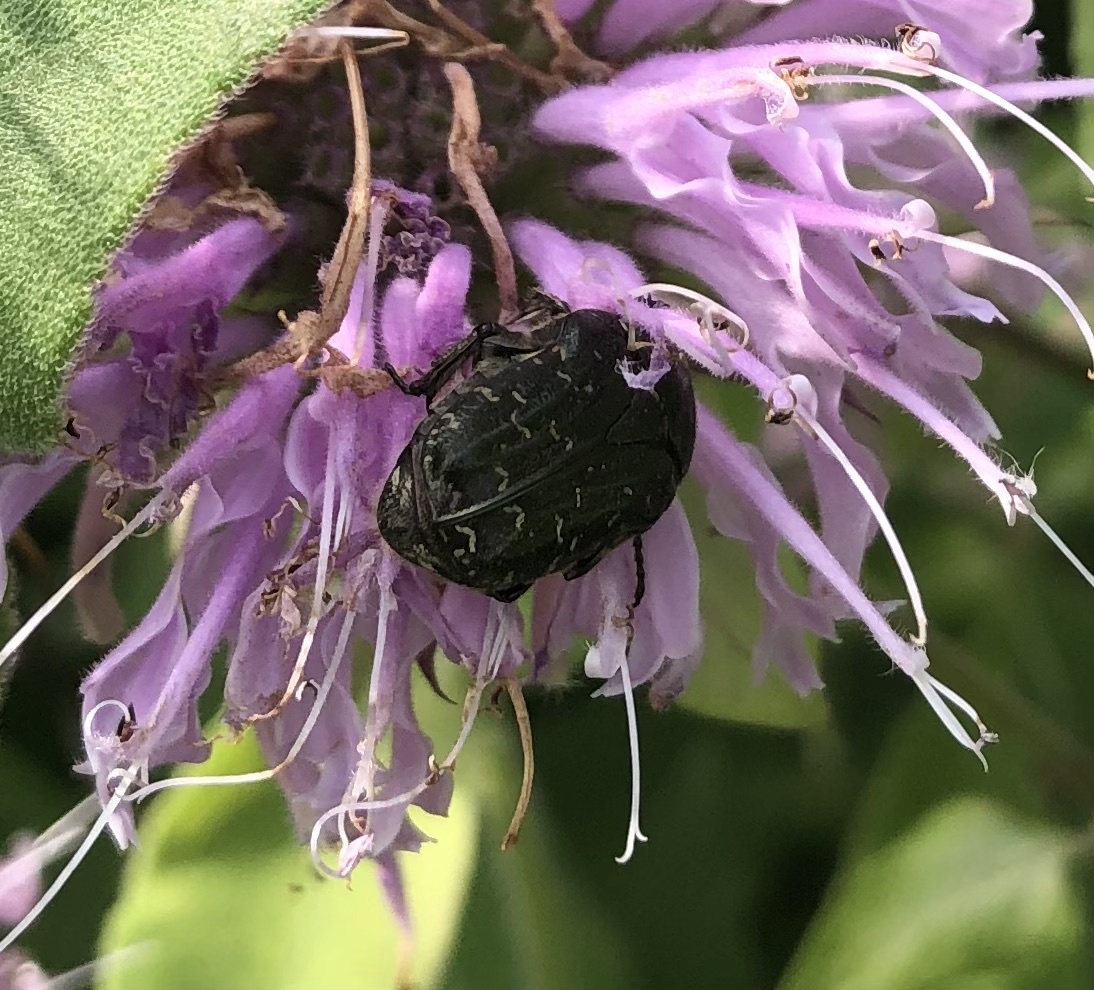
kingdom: Animalia
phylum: Arthropoda
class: Insecta
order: Coleoptera
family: Scarabaeidae
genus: Euphoria
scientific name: Euphoria sepulcralis
